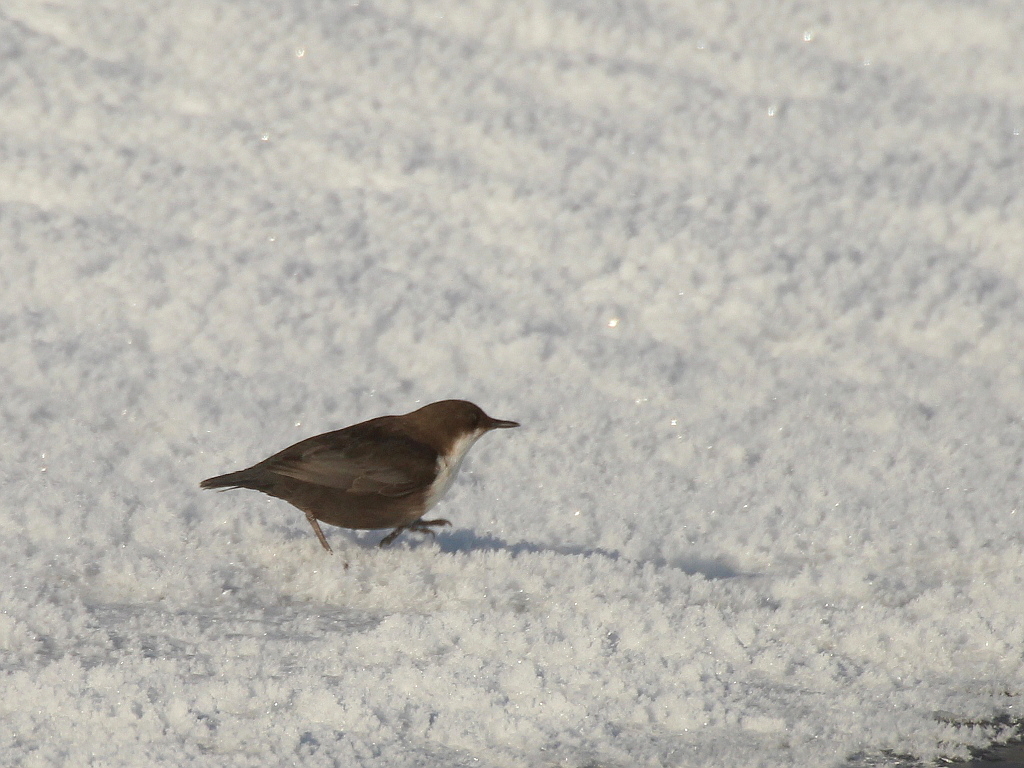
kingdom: Animalia
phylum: Chordata
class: Aves
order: Passeriformes
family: Cinclidae
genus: Cinclus
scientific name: Cinclus cinclus
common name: White-throated dipper
